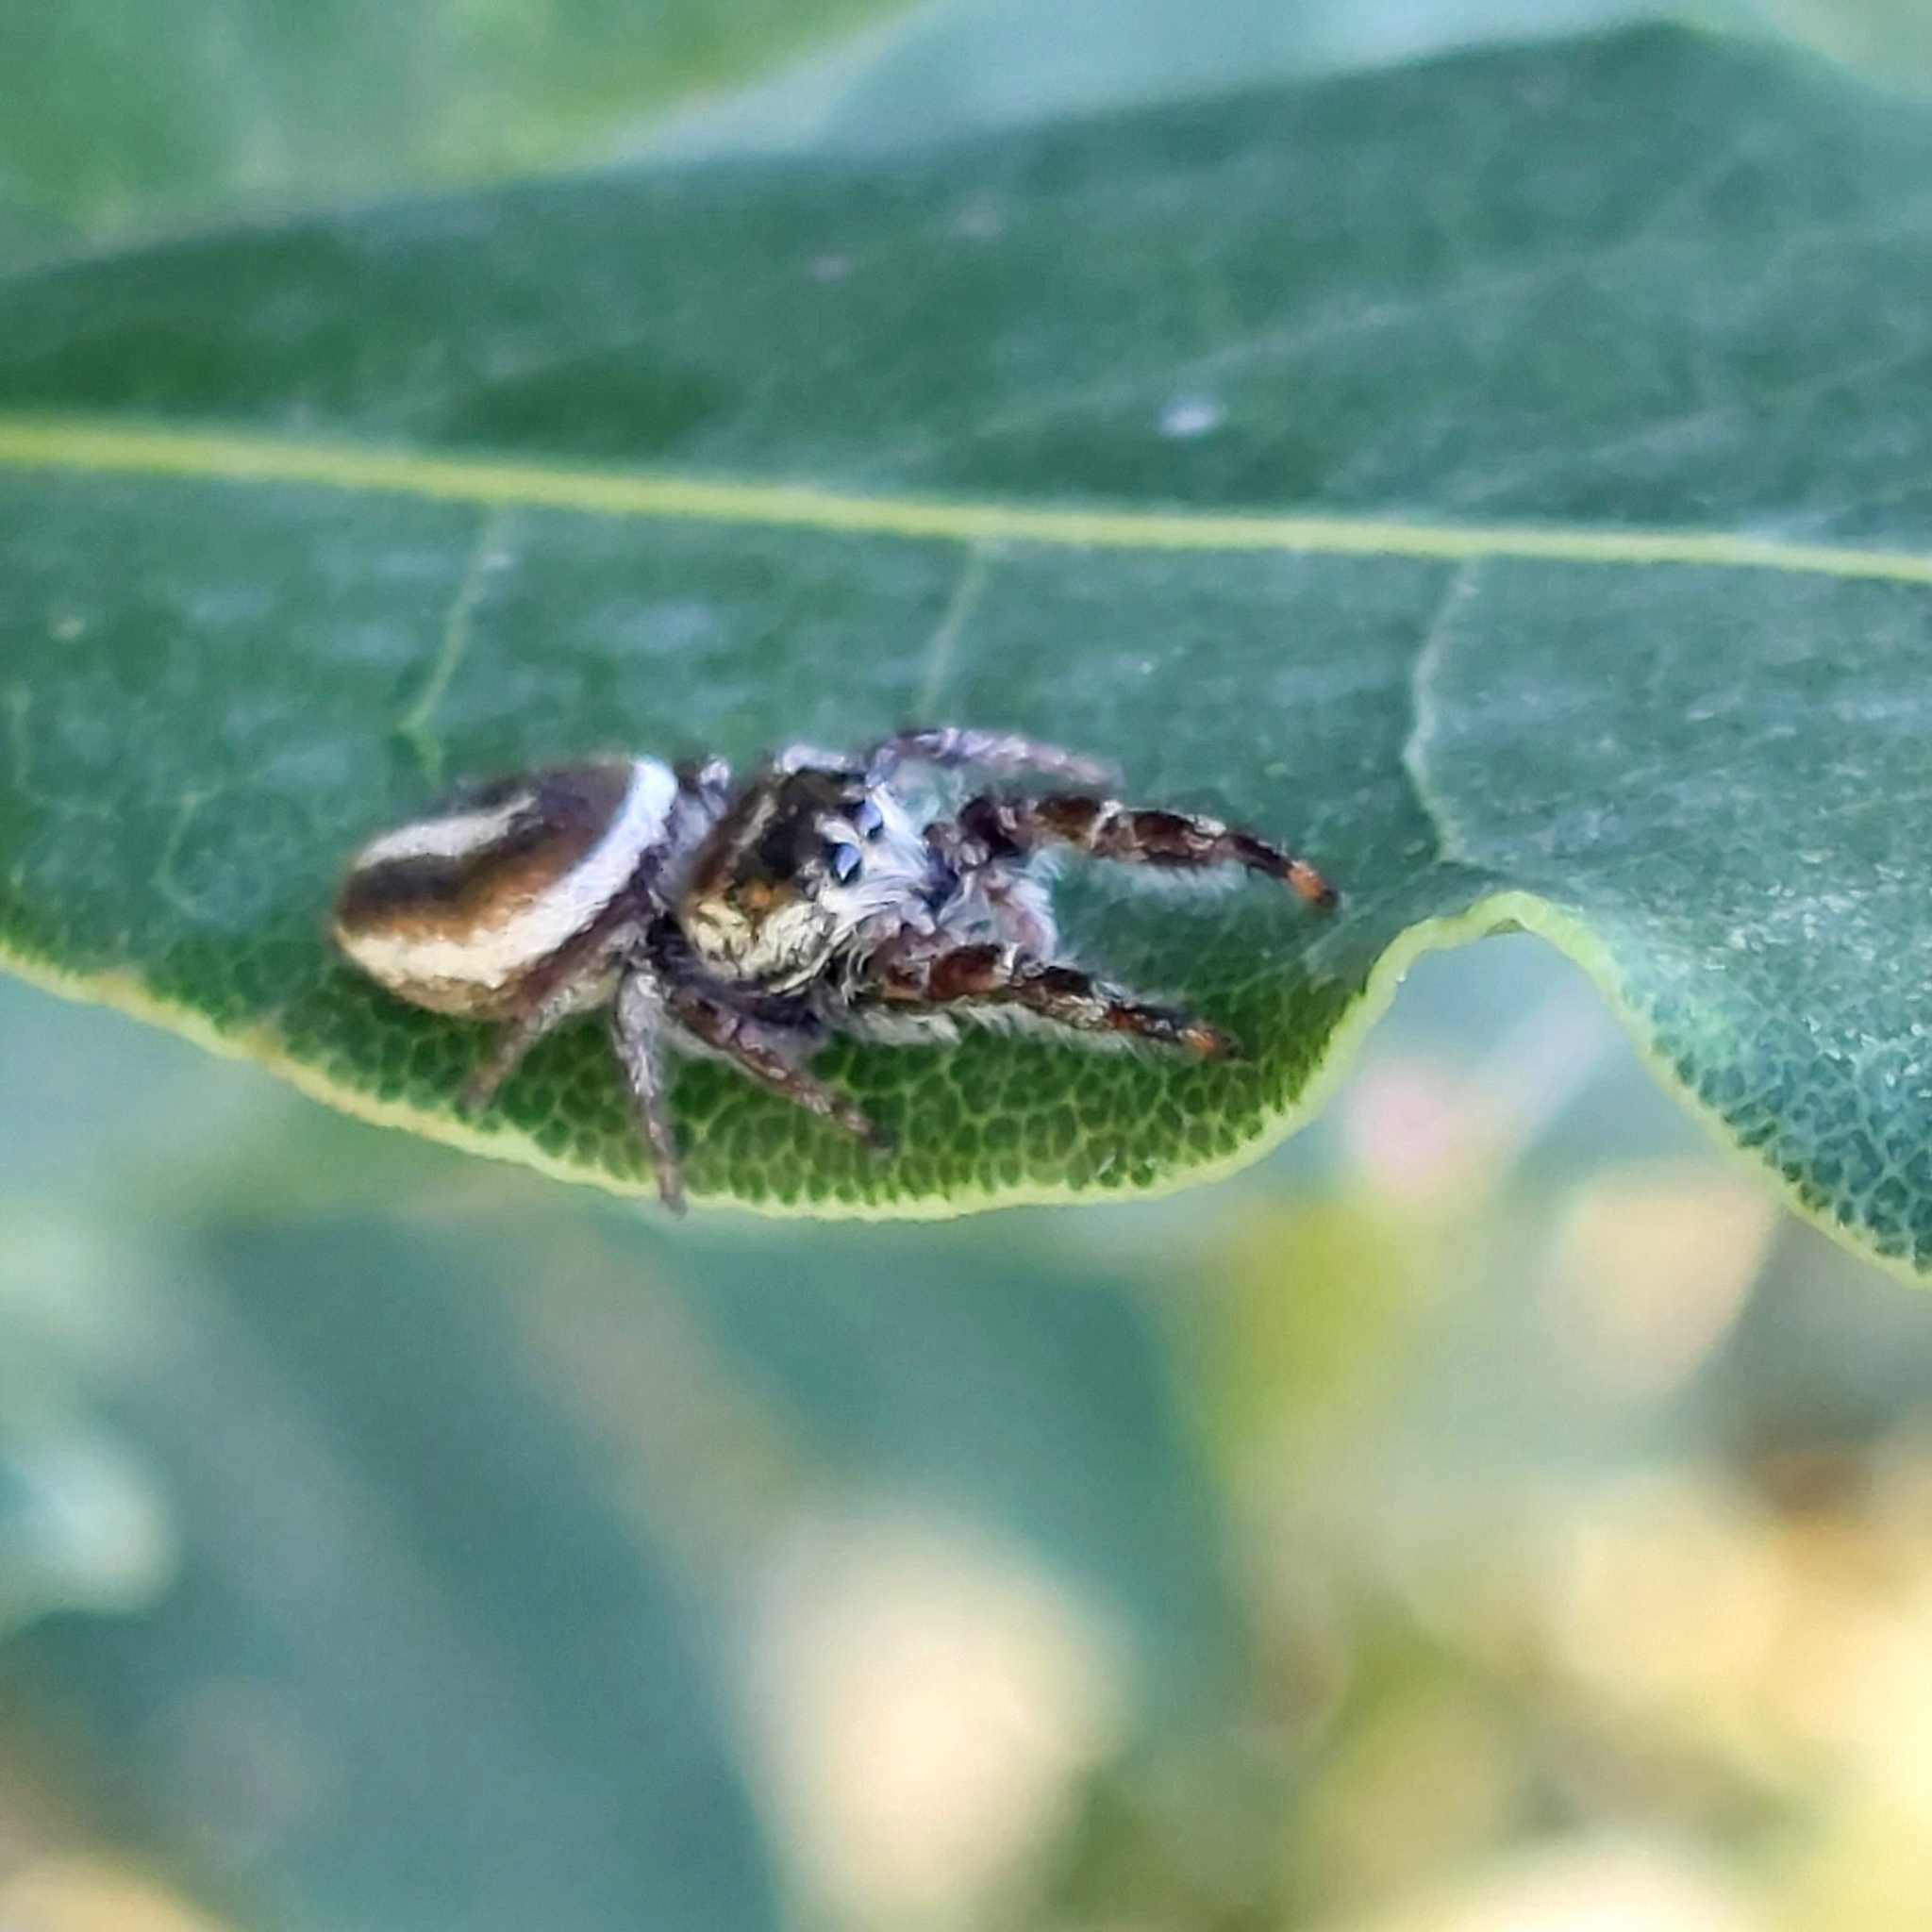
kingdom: Animalia
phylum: Arthropoda
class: Arachnida
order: Araneae
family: Salticidae
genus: Dendryphantes
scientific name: Dendryphantes mordax
